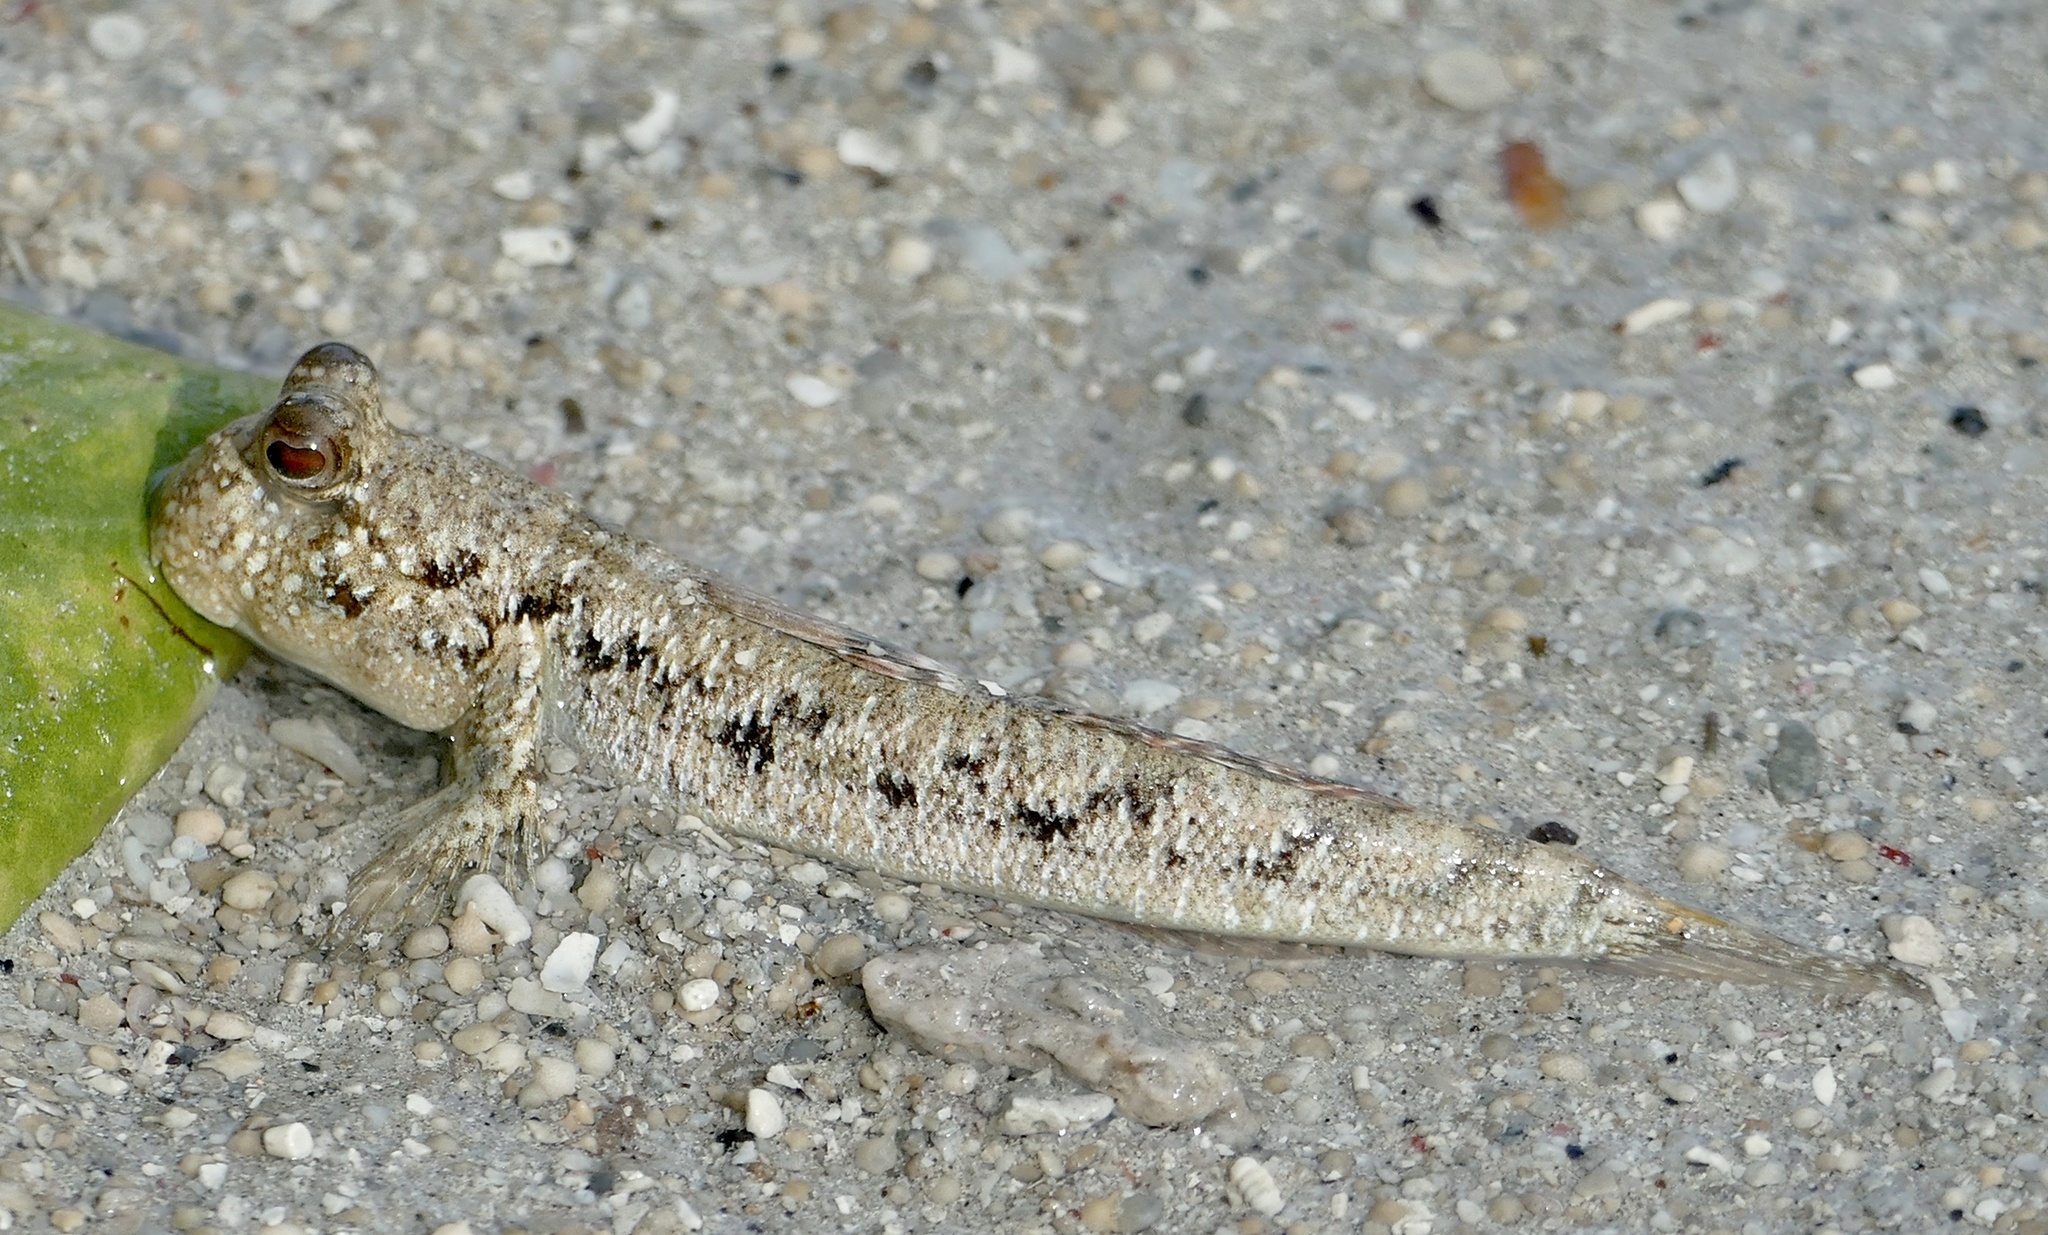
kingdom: Animalia
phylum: Chordata
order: Perciformes
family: Gobiidae
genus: Periophthalmus
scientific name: Periophthalmus argentilineatus
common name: Barred mudskipper
